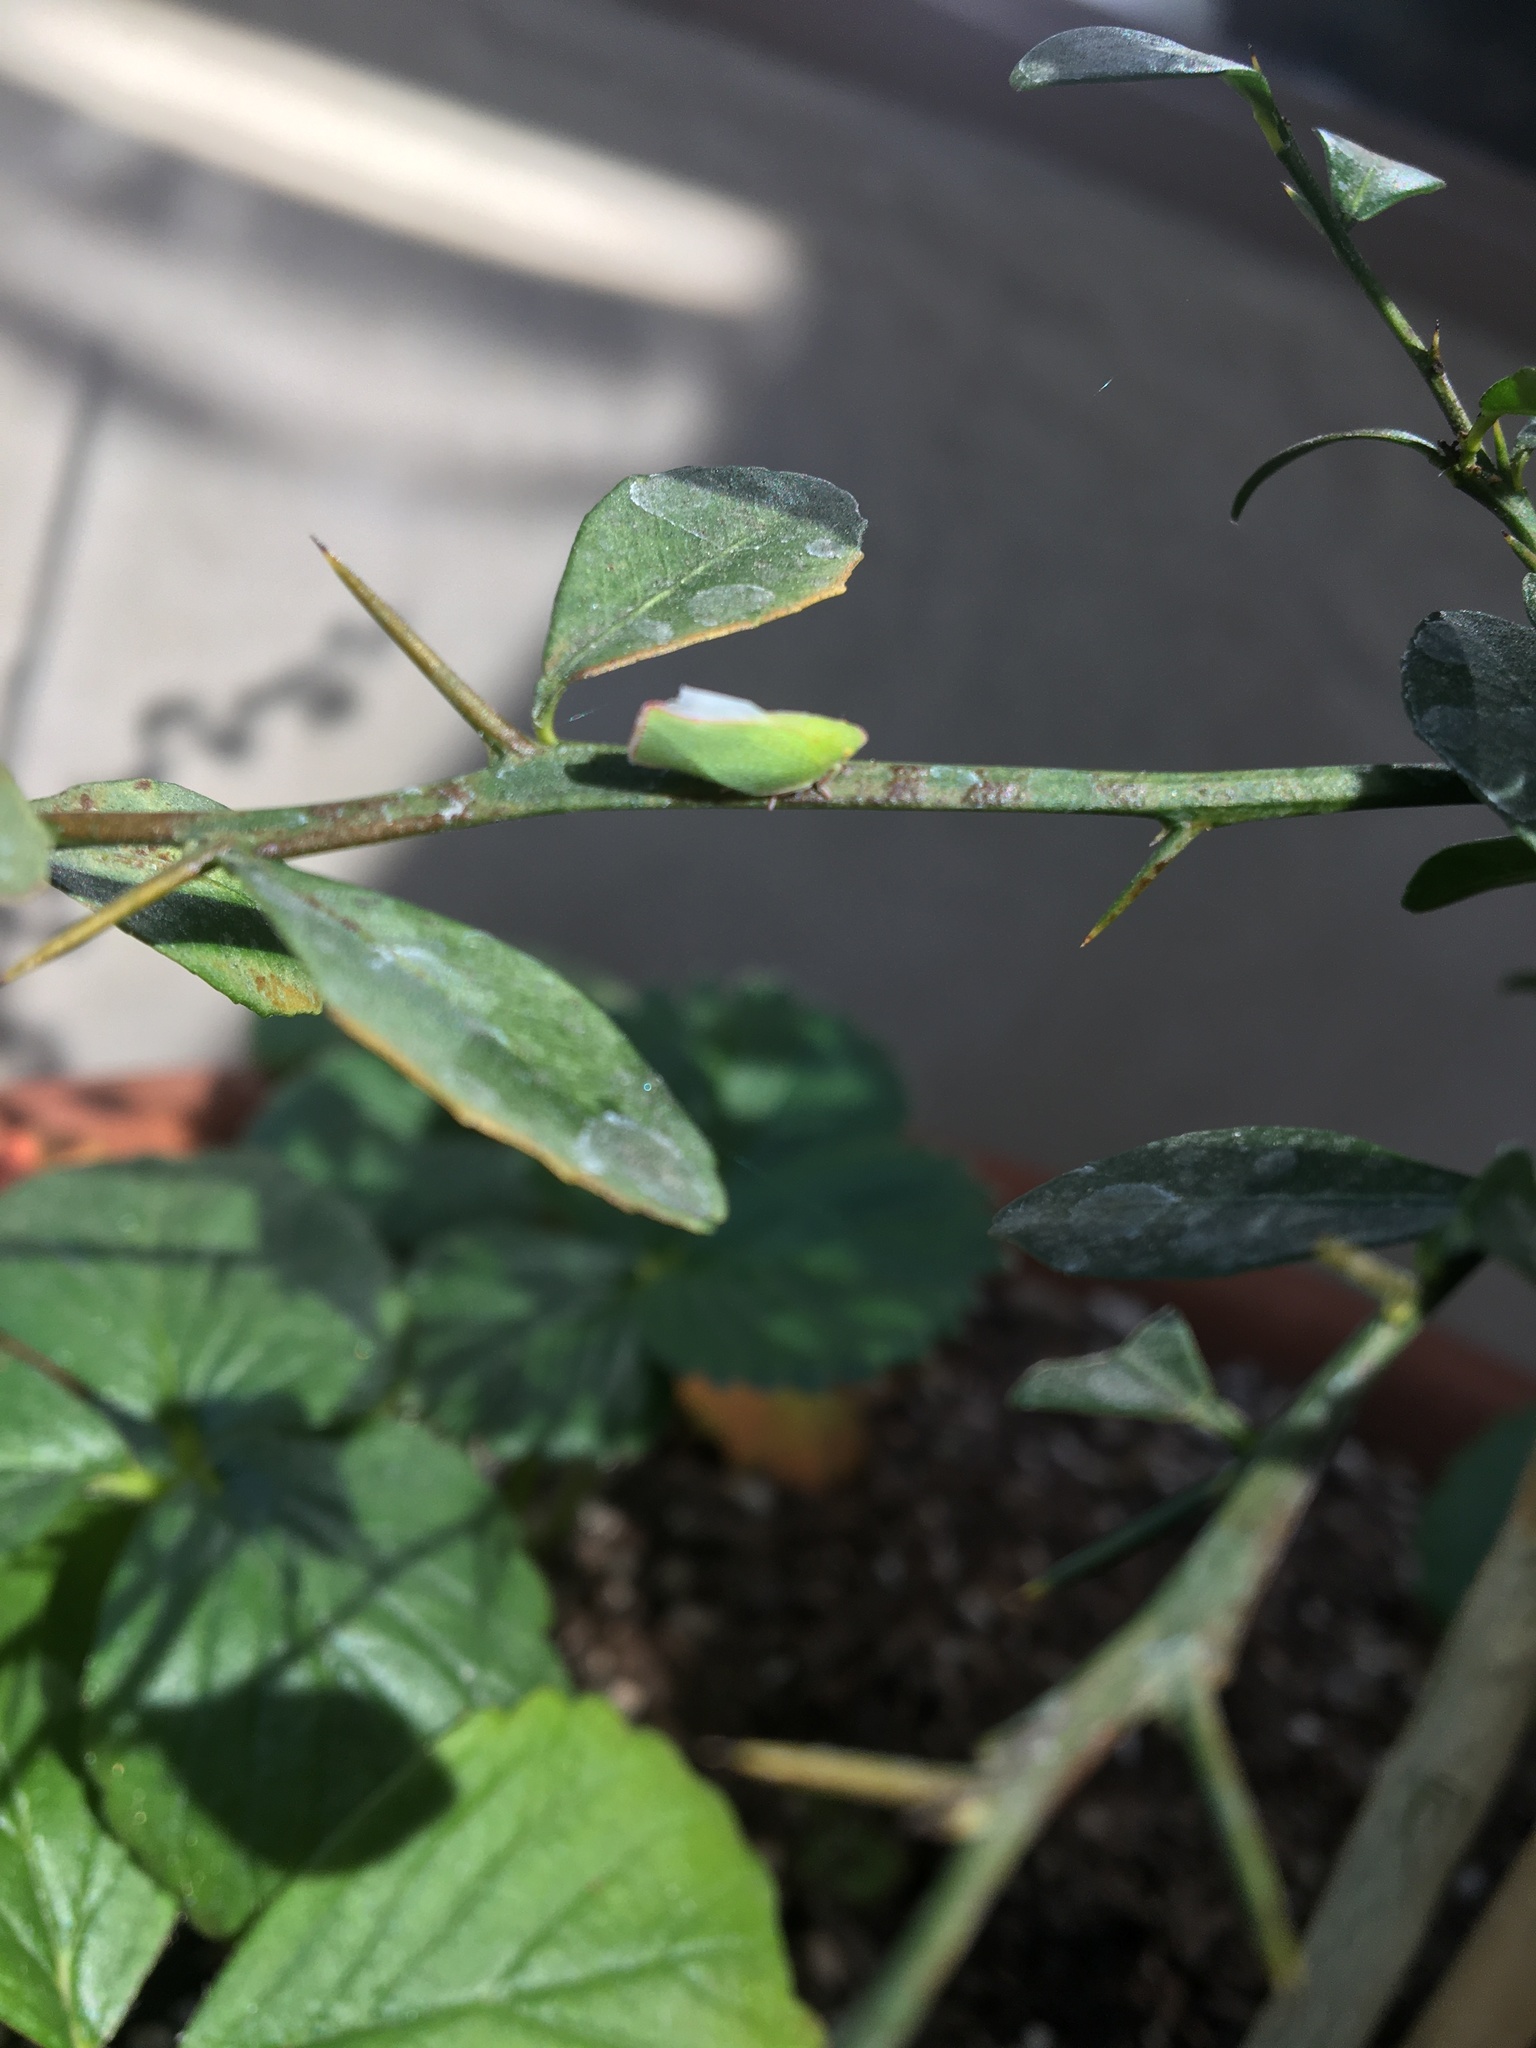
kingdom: Animalia
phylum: Arthropoda
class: Insecta
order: Hemiptera
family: Flatidae
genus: Siphanta
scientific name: Siphanta acuta
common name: Torpedo bug
